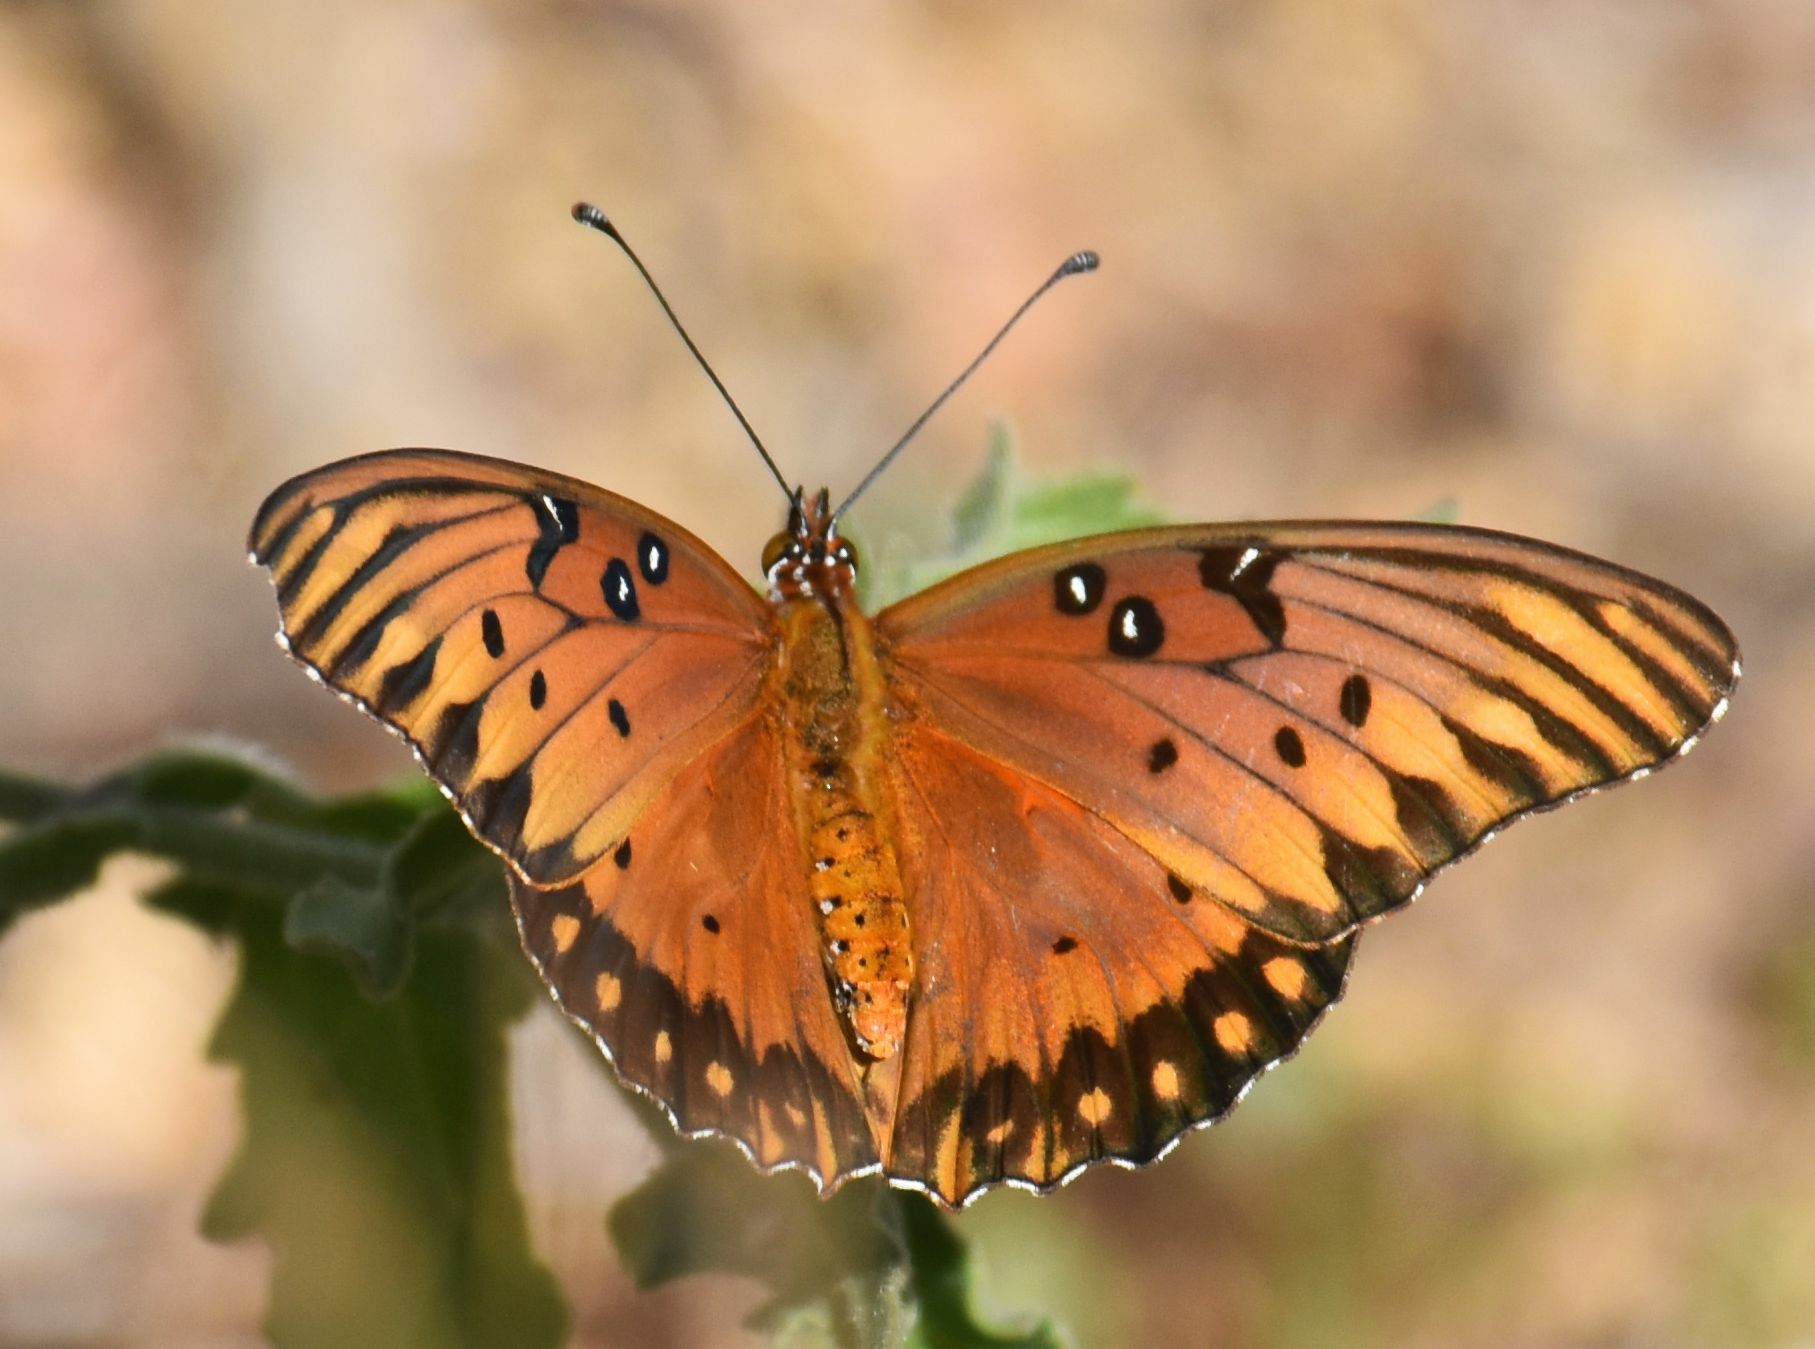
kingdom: Animalia
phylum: Arthropoda
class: Insecta
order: Lepidoptera
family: Nymphalidae
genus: Dione
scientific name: Dione vanillae
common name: Gulf fritillary
